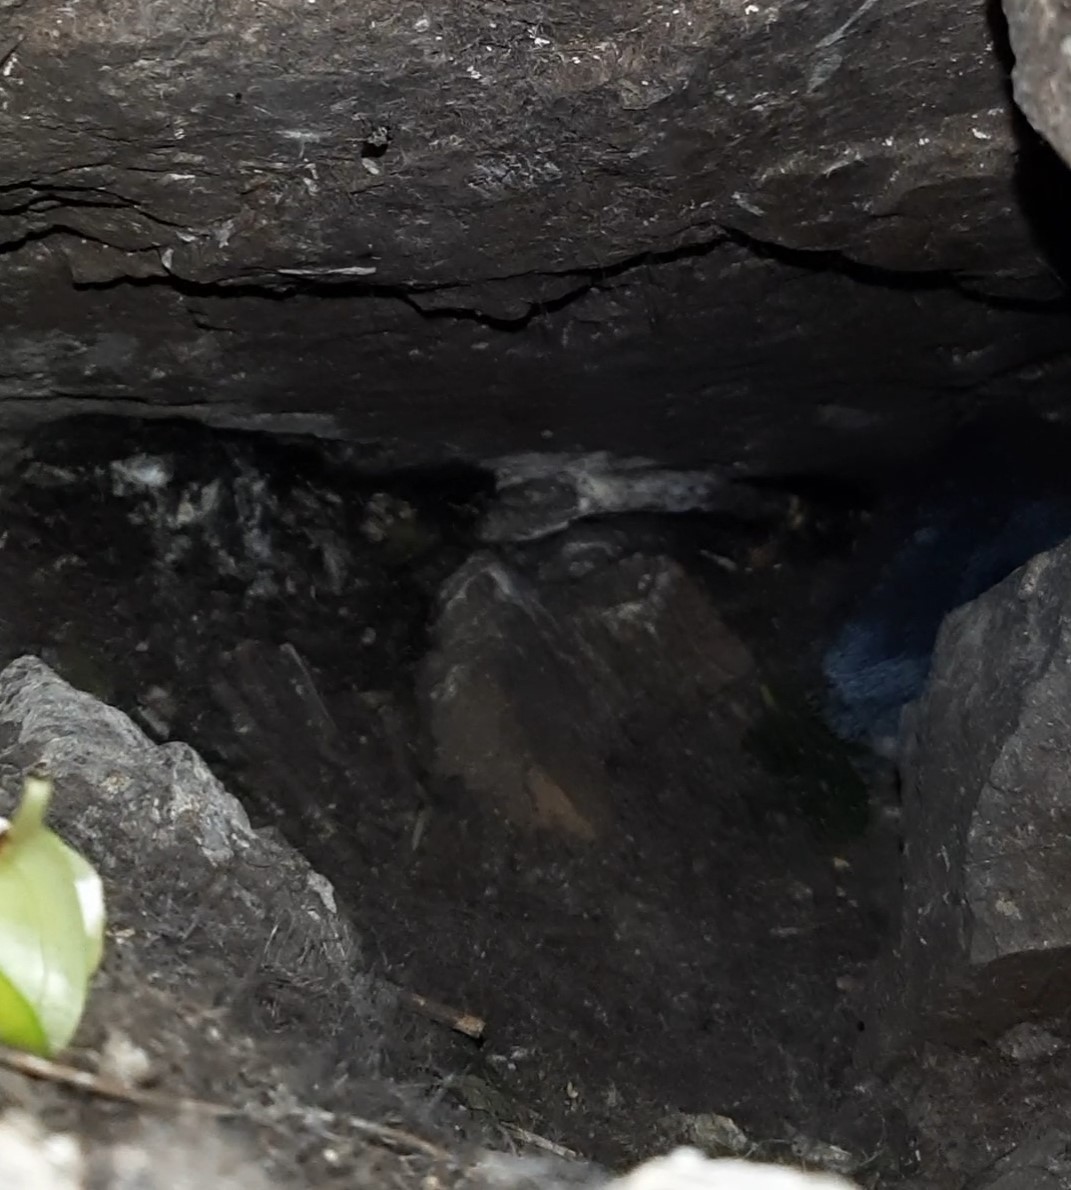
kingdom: Animalia
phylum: Chordata
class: Aves
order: Sphenisciformes
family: Spheniscidae
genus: Eudyptula
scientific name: Eudyptula minor
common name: Little penguin
